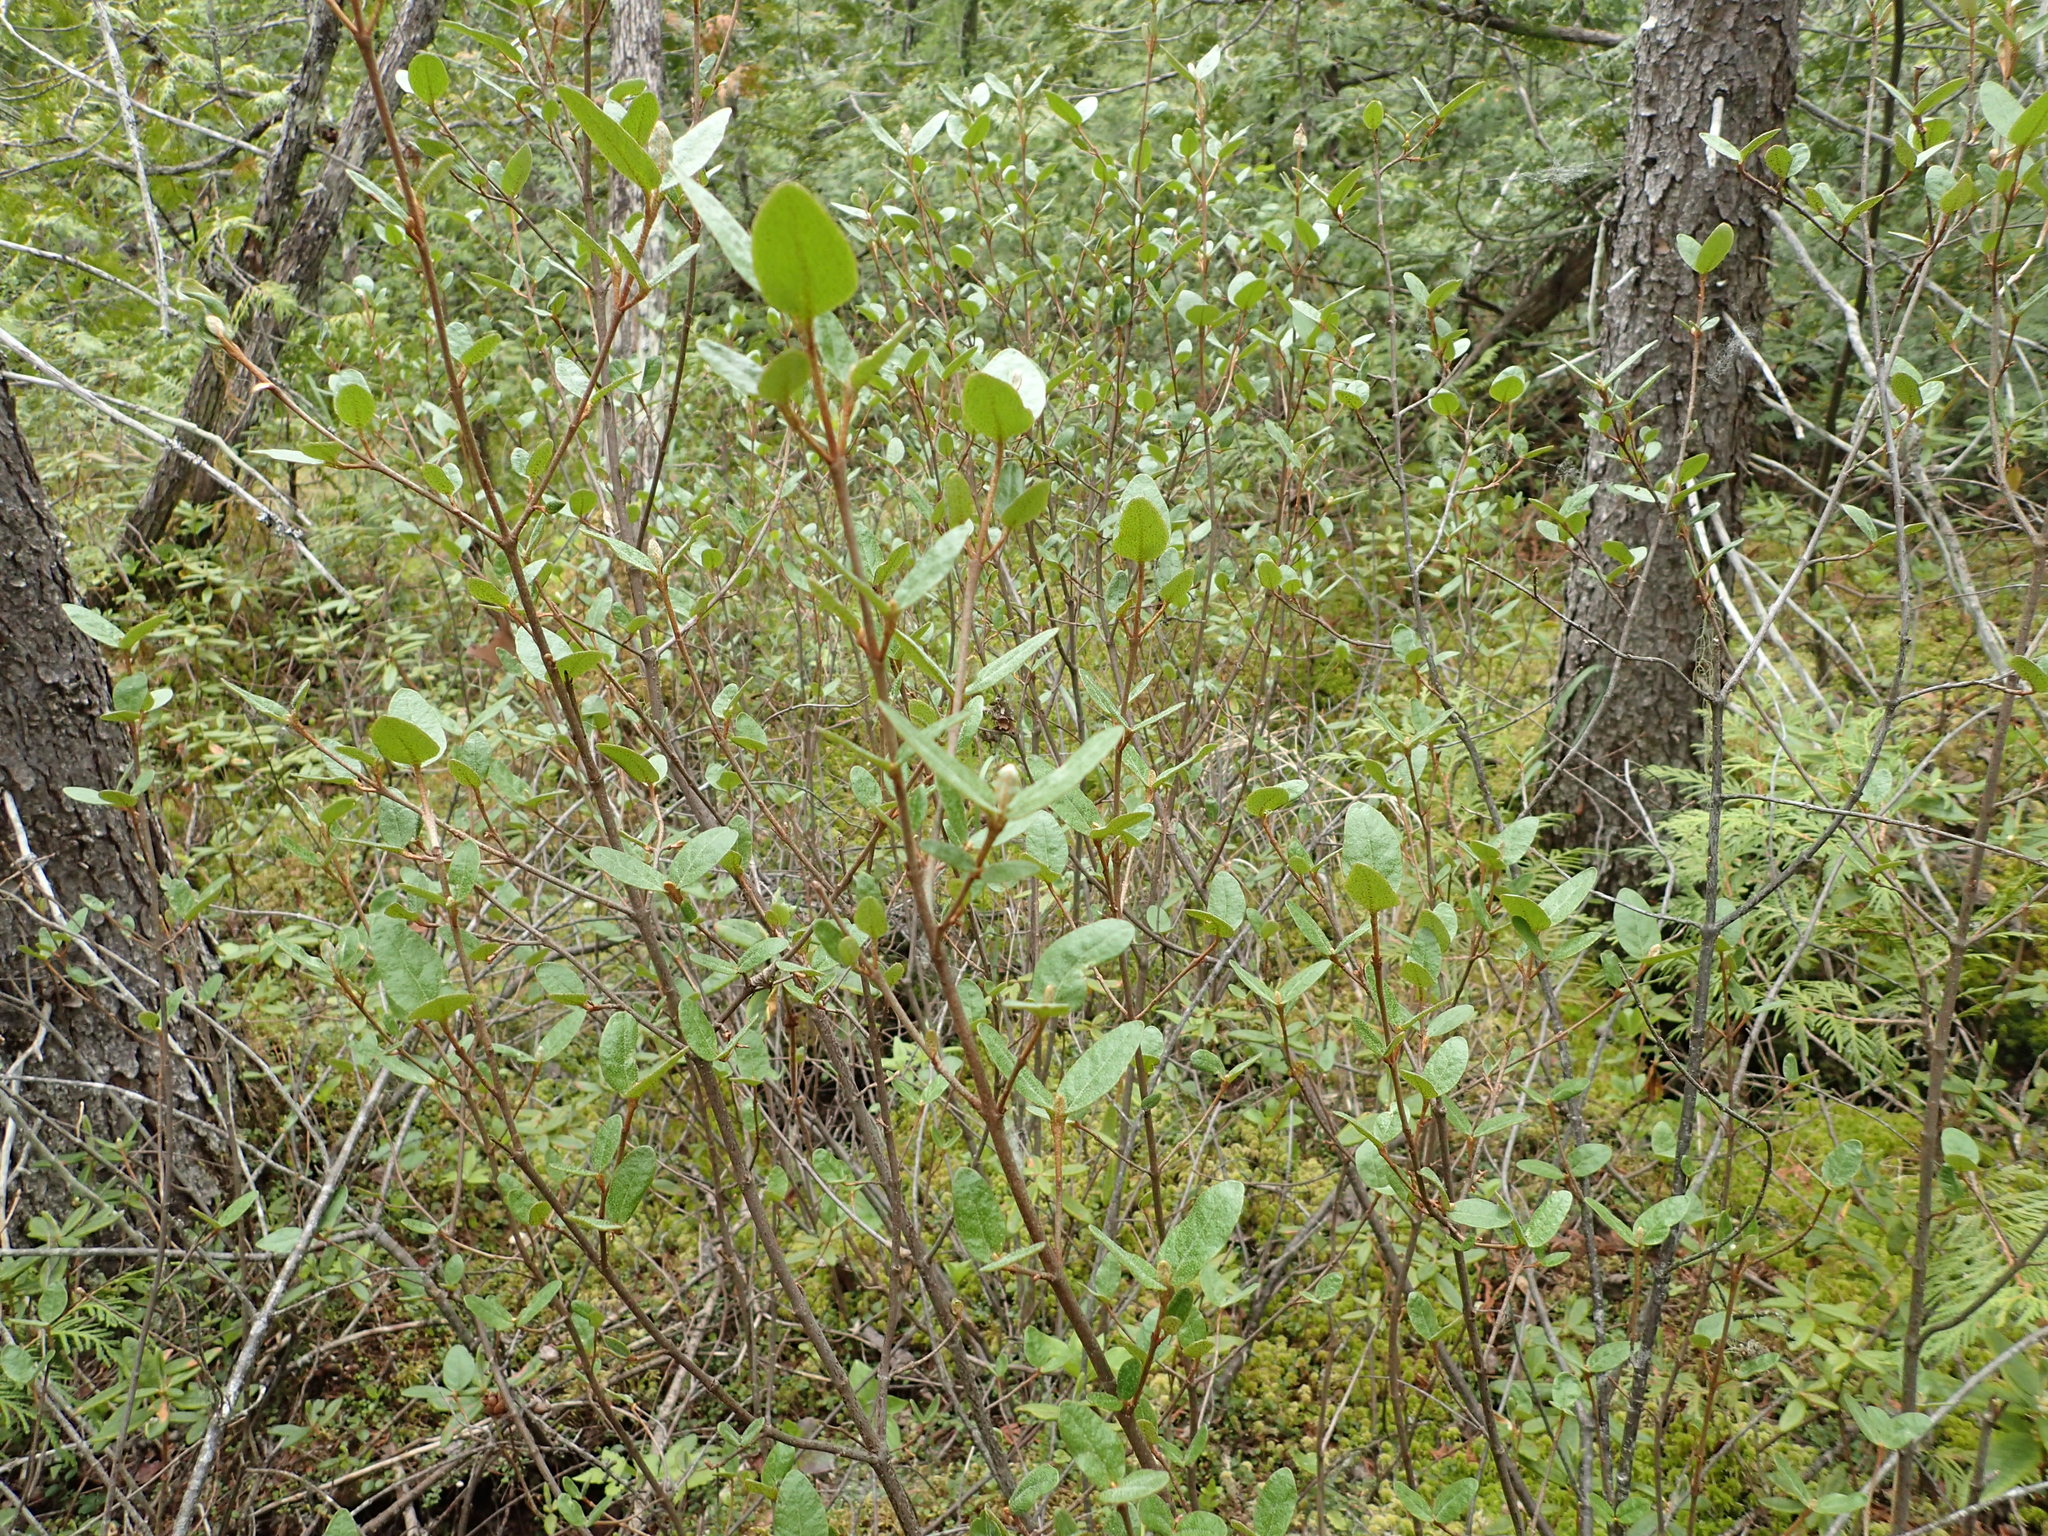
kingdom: Plantae
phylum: Tracheophyta
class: Magnoliopsida
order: Rosales
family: Elaeagnaceae
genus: Shepherdia
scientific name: Shepherdia canadensis
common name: Soapberry
